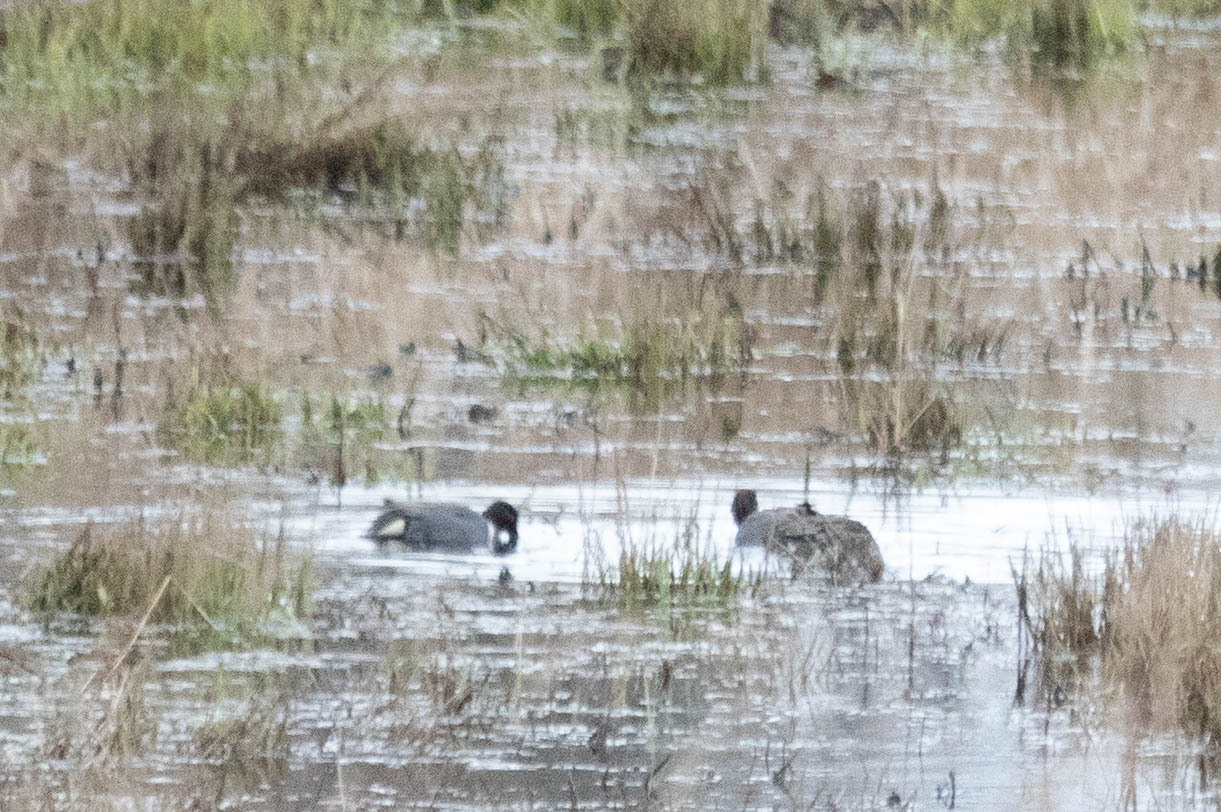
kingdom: Animalia
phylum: Chordata
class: Aves
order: Anseriformes
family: Anatidae
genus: Anas
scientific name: Anas carolinensis
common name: Green-winged teal
